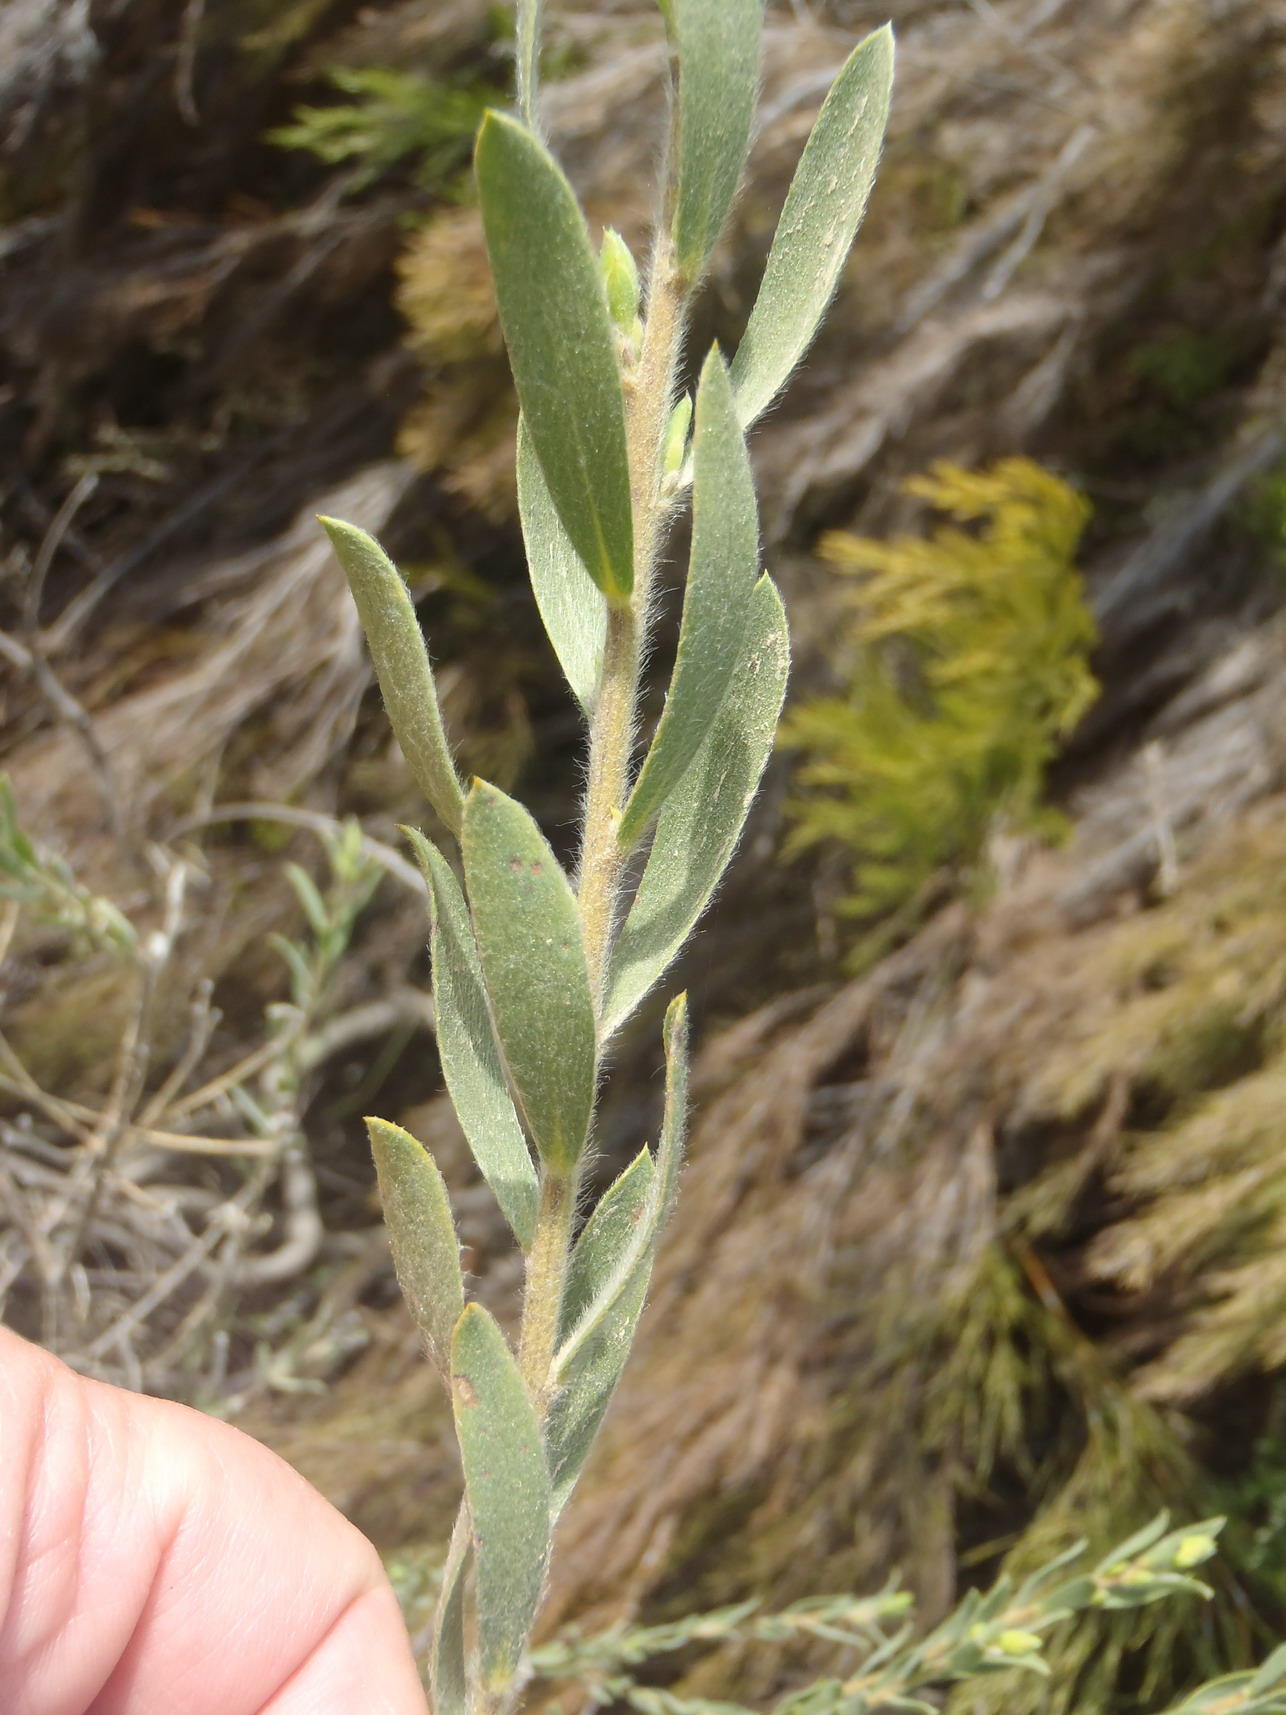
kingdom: Plantae
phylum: Tracheophyta
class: Magnoliopsida
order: Fabales
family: Fabaceae
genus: Liparia
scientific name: Liparia racemosa
